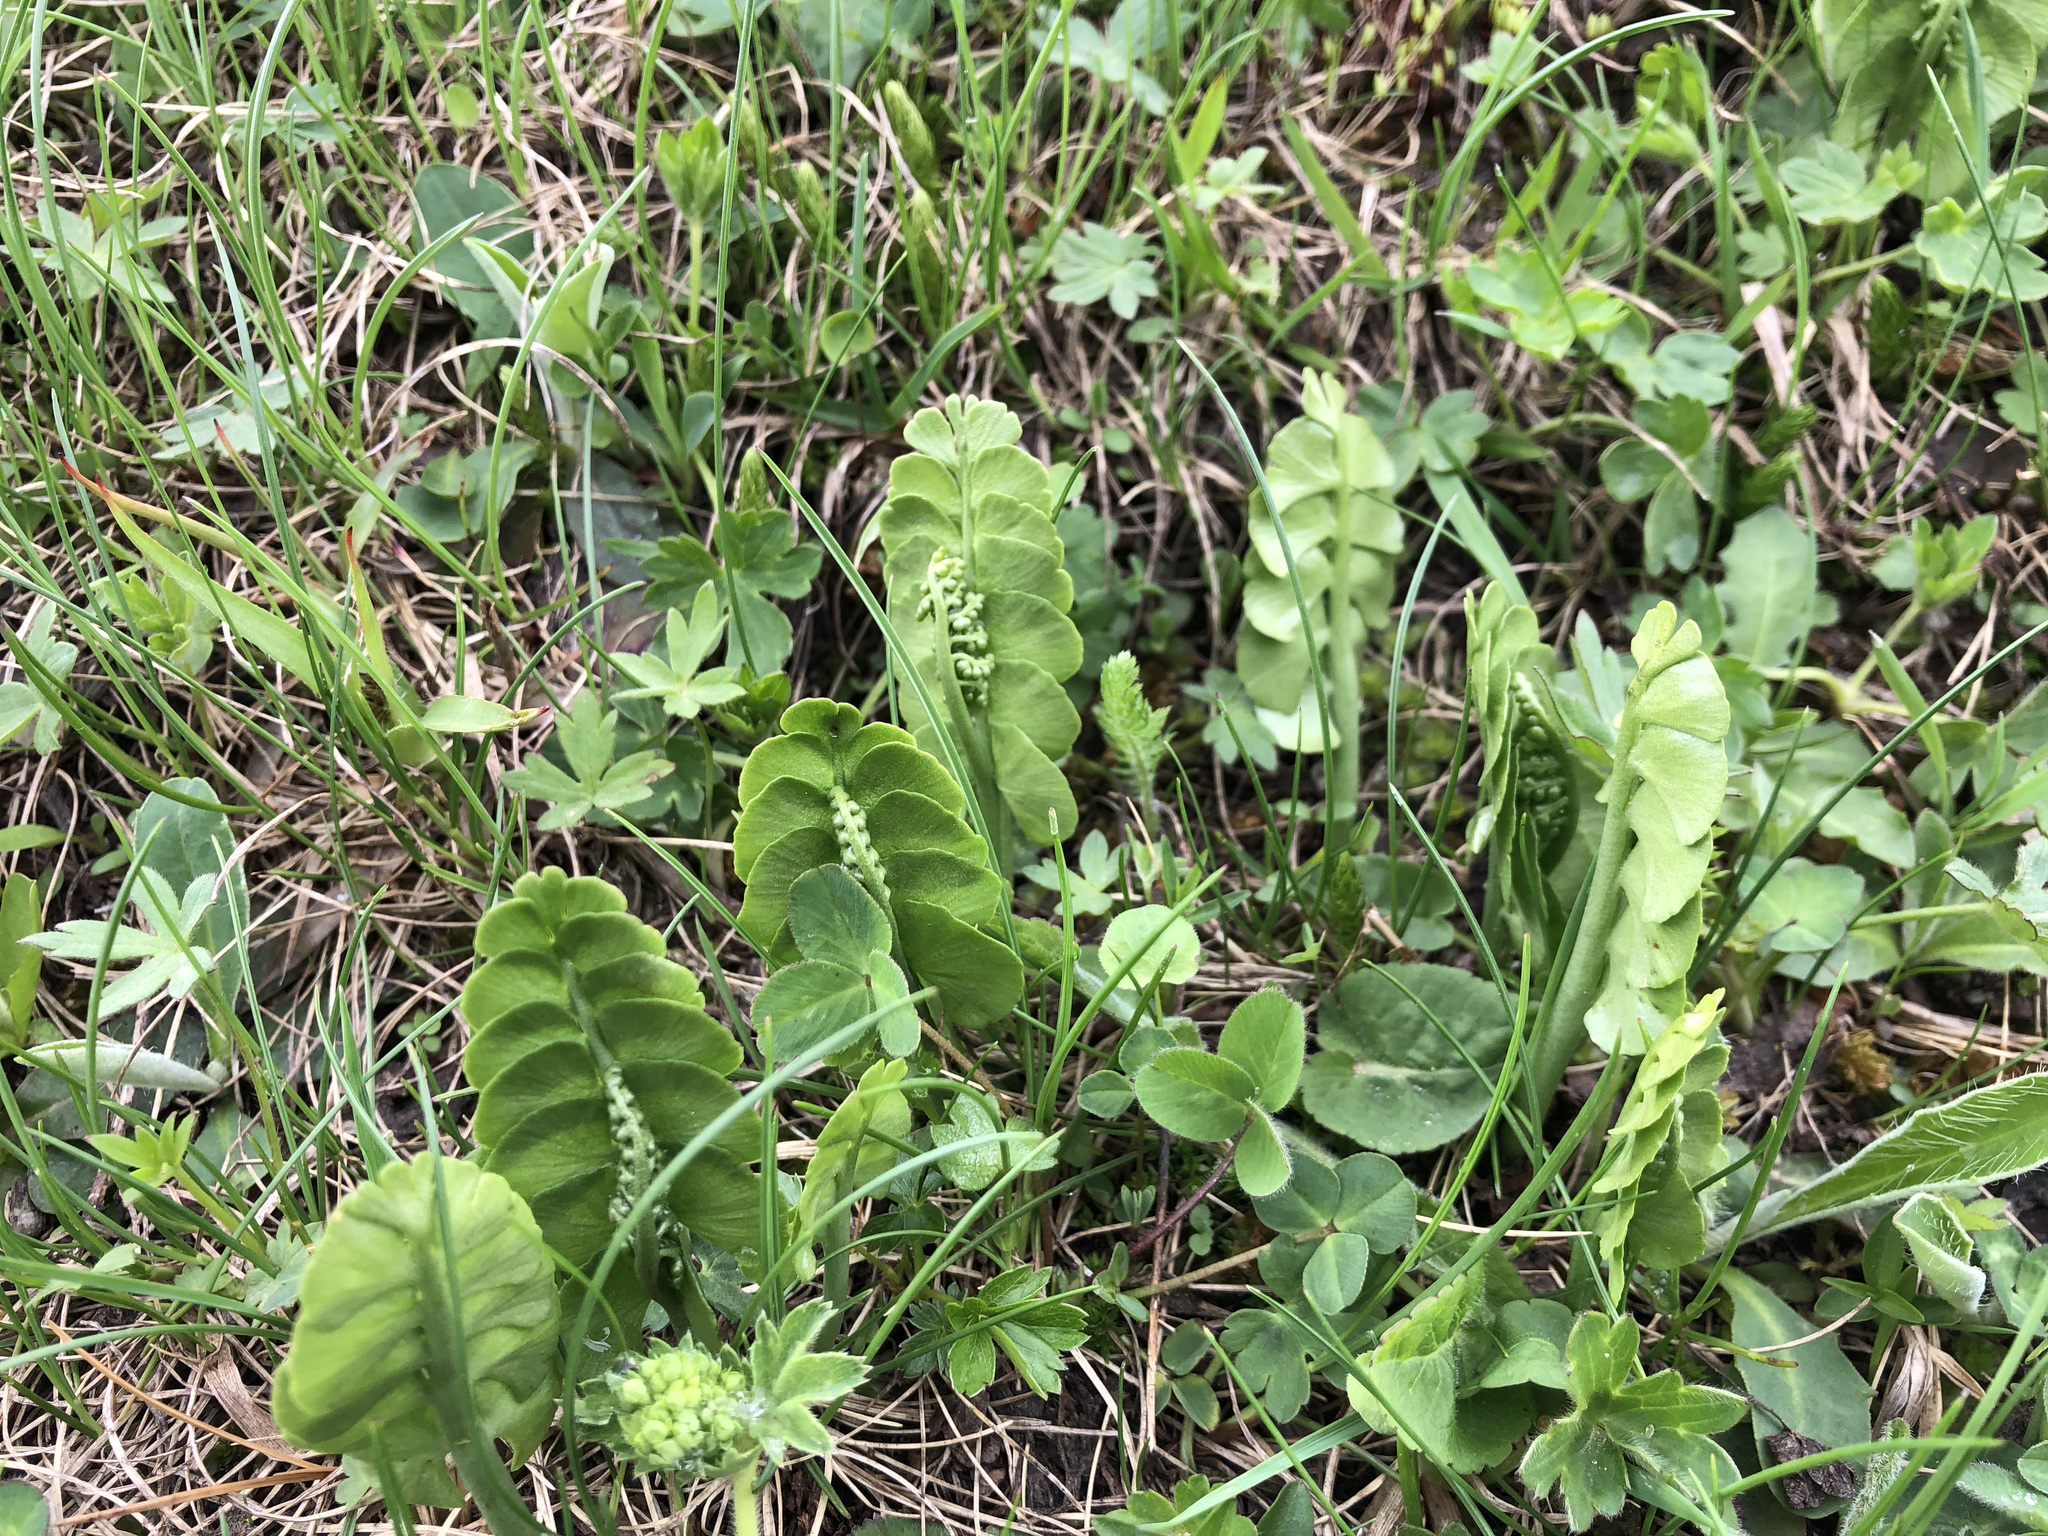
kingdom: Plantae
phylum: Tracheophyta
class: Polypodiopsida
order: Ophioglossales
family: Ophioglossaceae
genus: Botrychium
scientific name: Botrychium lunaria
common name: Moonwort
